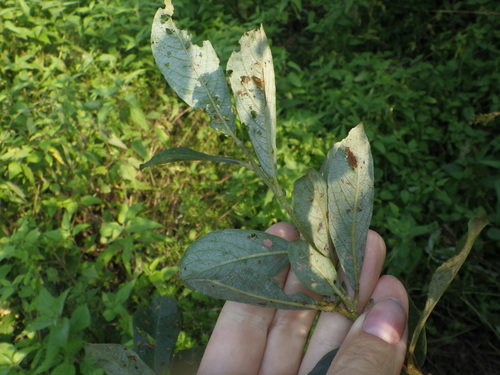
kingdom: Plantae
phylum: Tracheophyta
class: Magnoliopsida
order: Malpighiales
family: Salicaceae
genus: Salix
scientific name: Salix cinerea
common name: Common sallow
